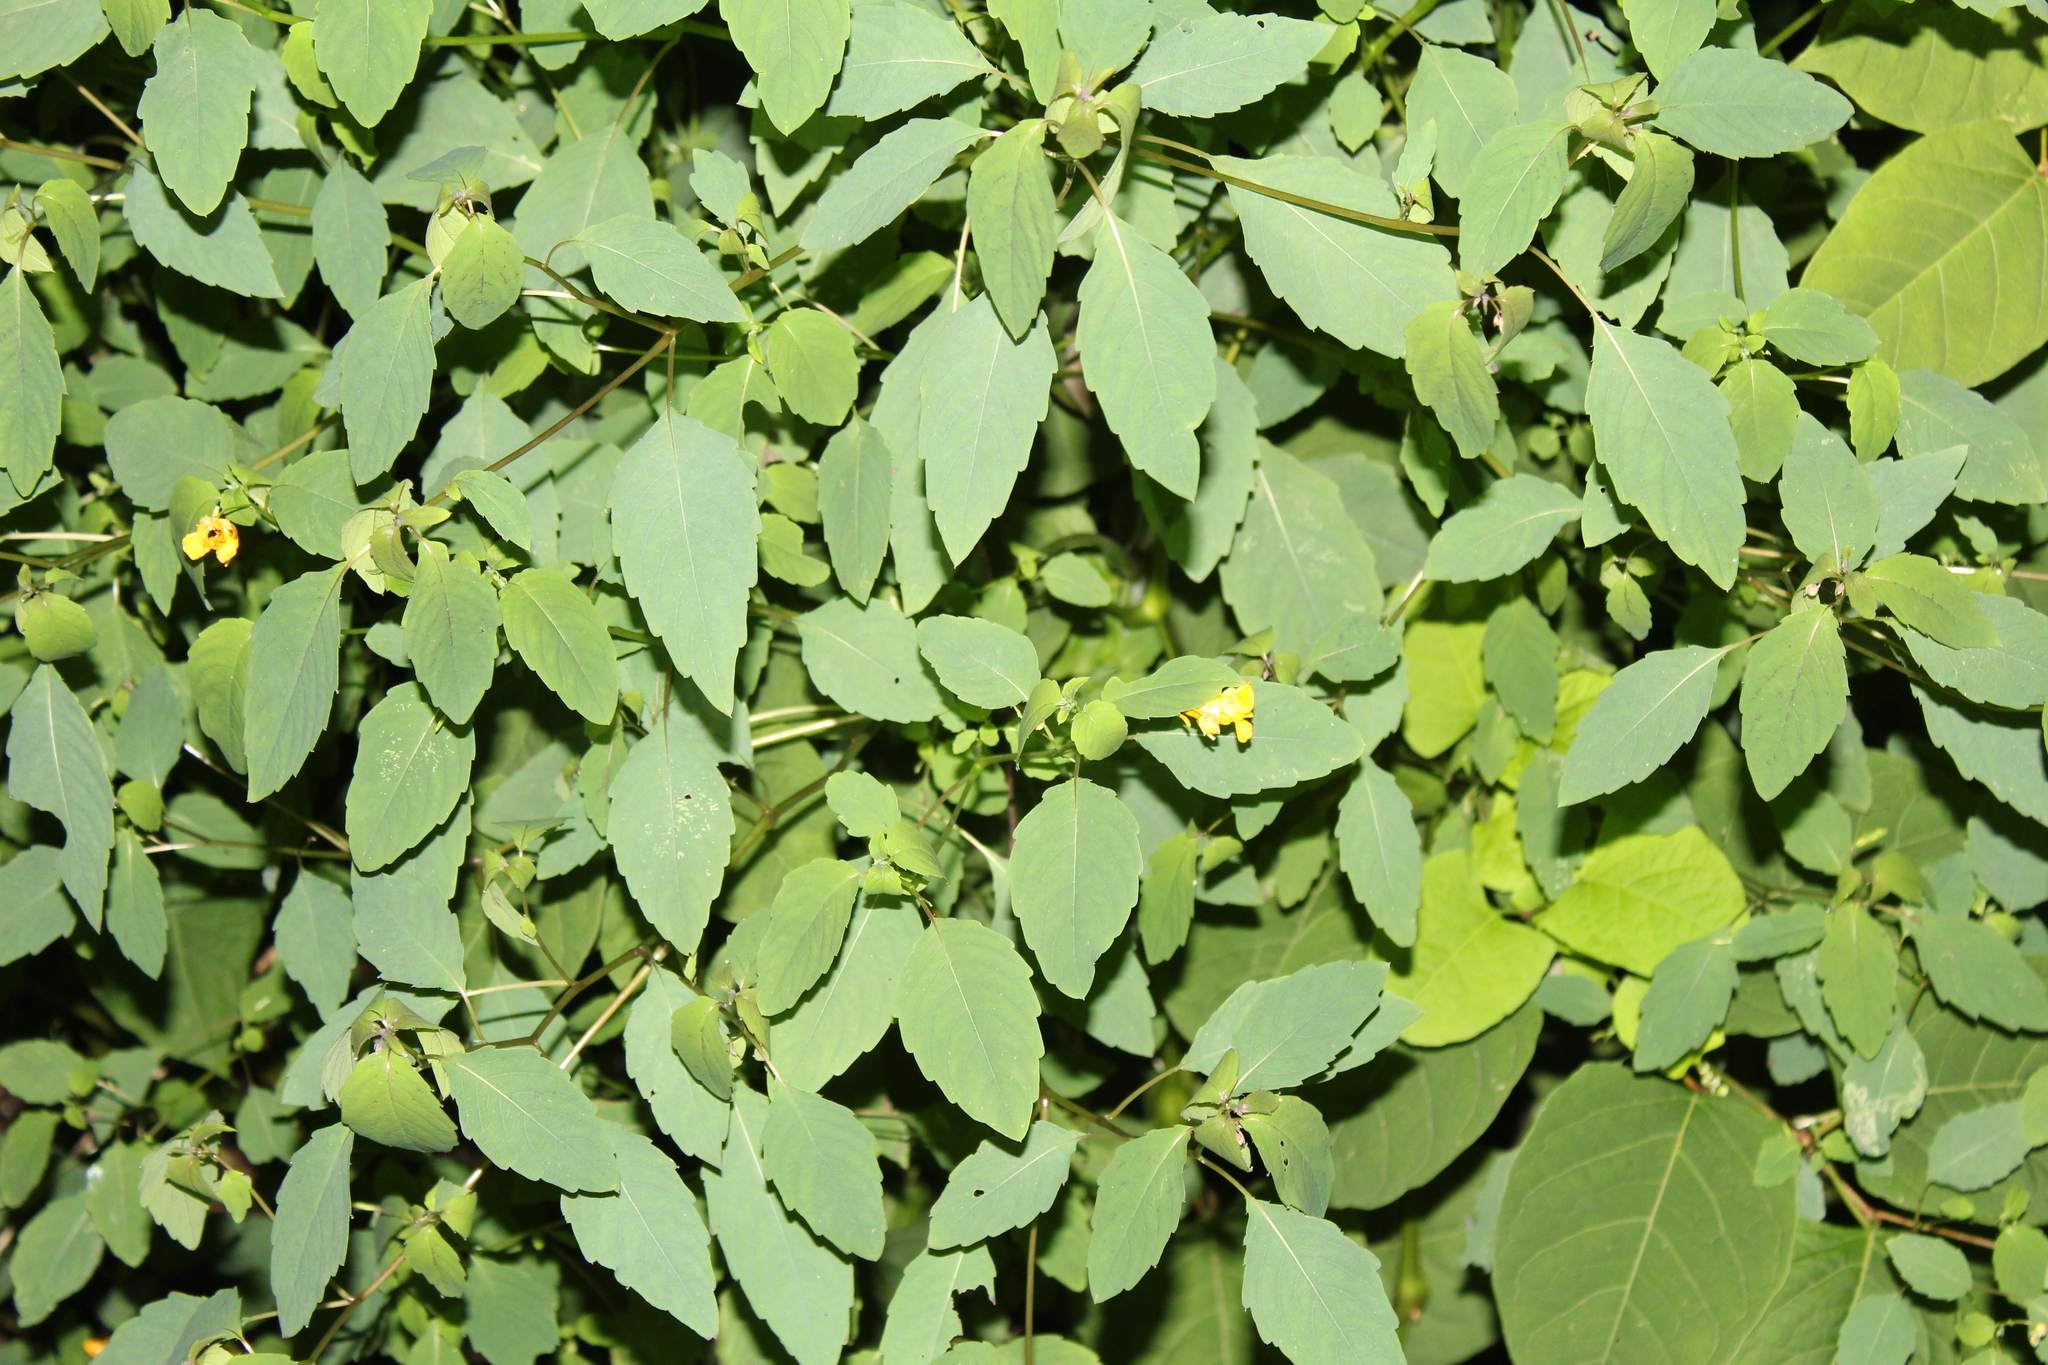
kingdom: Plantae
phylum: Tracheophyta
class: Magnoliopsida
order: Ericales
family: Balsaminaceae
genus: Impatiens
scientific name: Impatiens capensis
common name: Orange balsam
